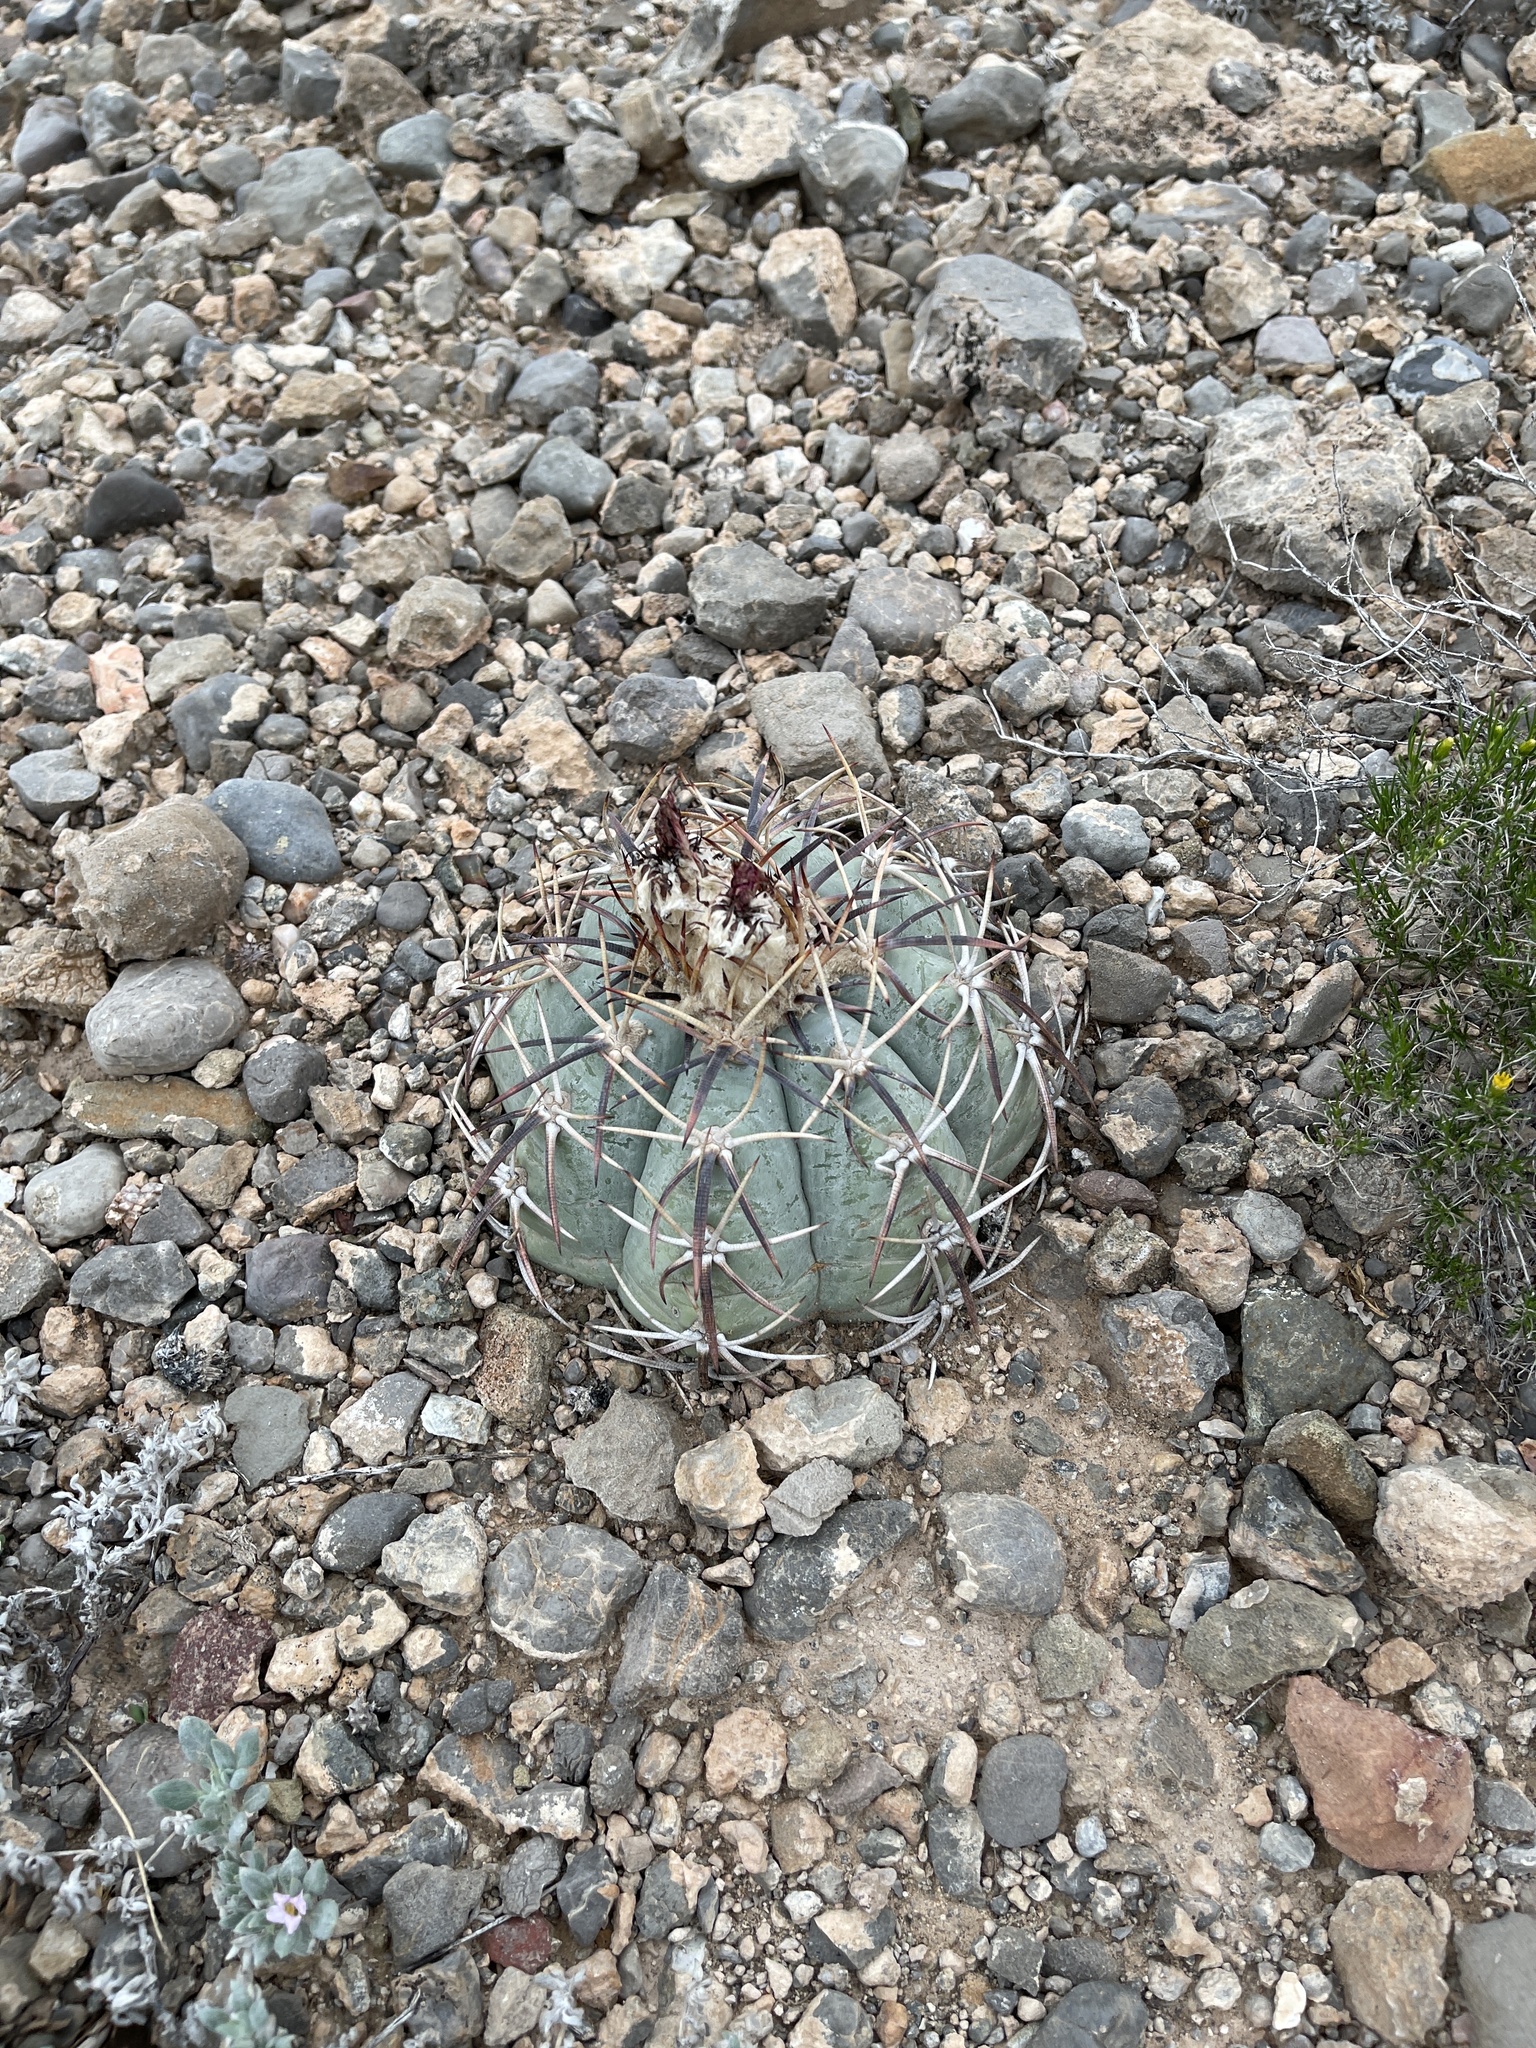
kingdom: Plantae
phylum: Tracheophyta
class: Magnoliopsida
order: Caryophyllales
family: Cactaceae
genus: Echinocactus
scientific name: Echinocactus horizonthalonius
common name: Devilshead
